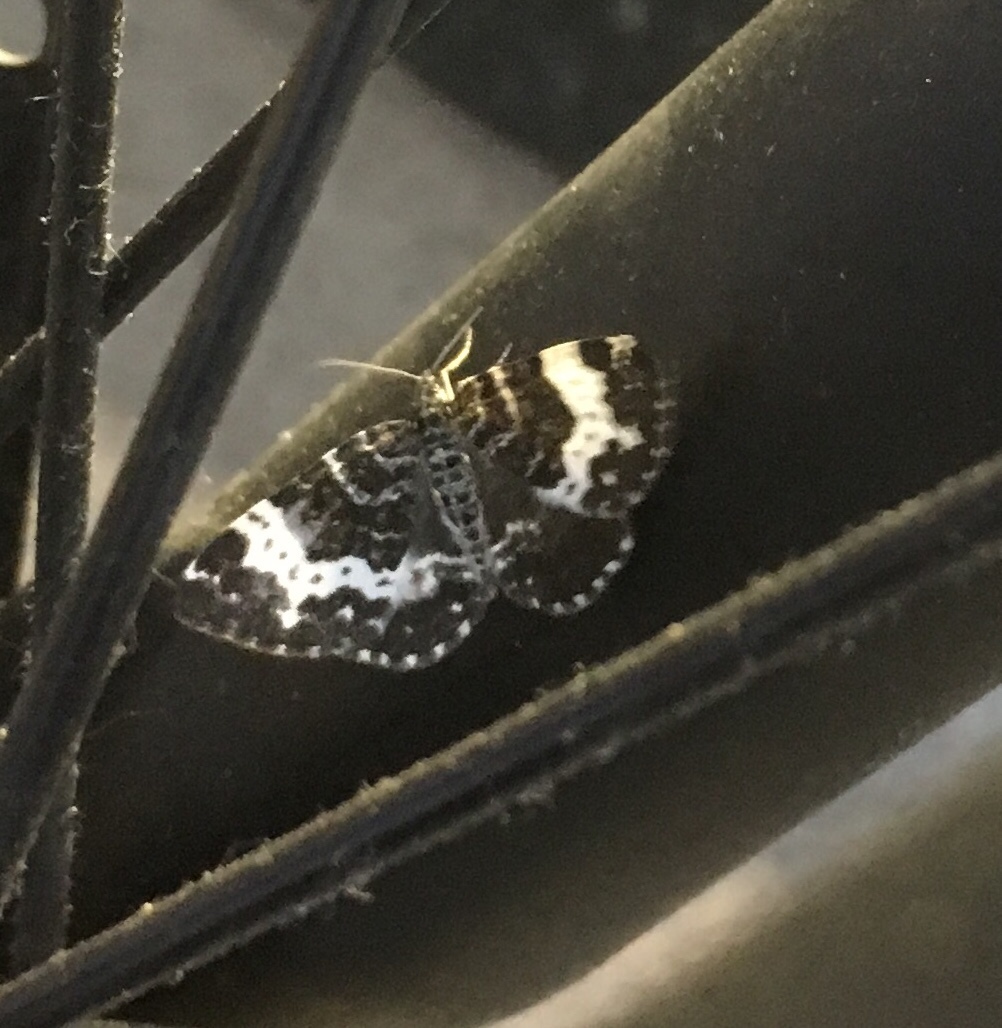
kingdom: Animalia
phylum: Arthropoda
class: Insecta
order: Lepidoptera
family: Geometridae
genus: Rheumaptera
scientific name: Rheumaptera hastata
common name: Argent & sable
